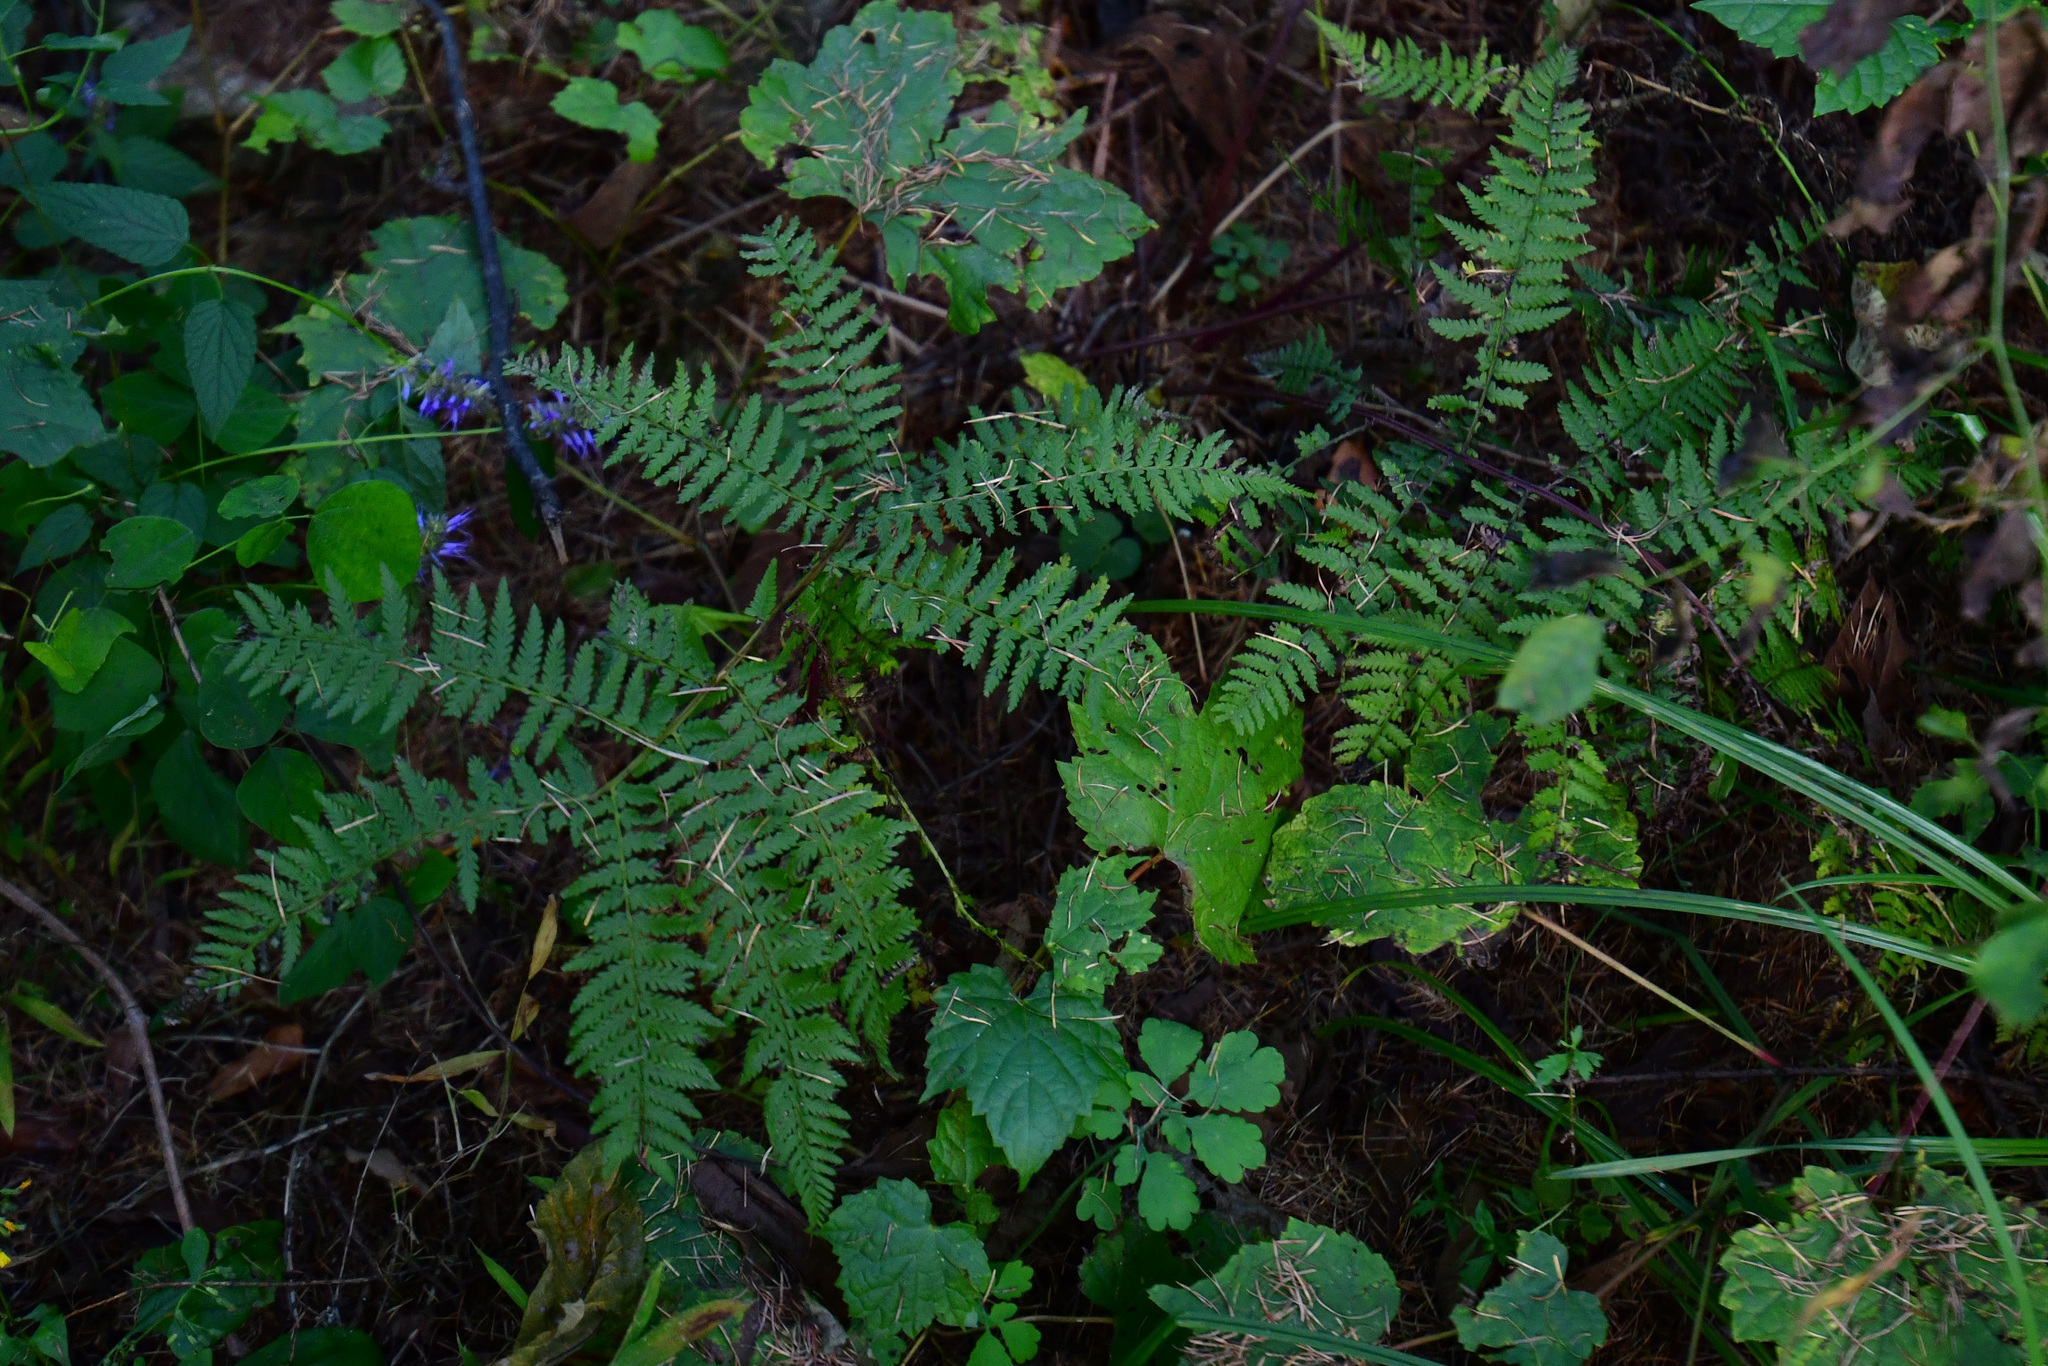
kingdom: Plantae
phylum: Tracheophyta
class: Polypodiopsida
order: Polypodiales
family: Athyriaceae
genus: Diplazium
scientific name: Diplazium sibiricum
